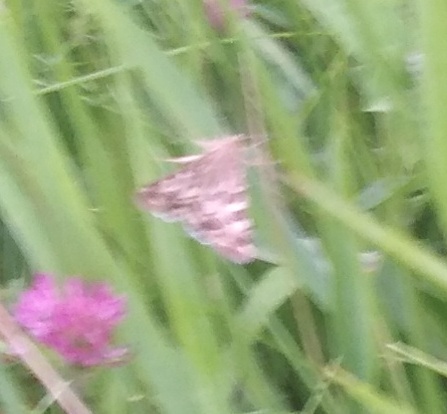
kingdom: Animalia
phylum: Arthropoda
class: Insecta
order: Lepidoptera
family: Noctuidae
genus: Protoschinia
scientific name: Protoschinia scutosa
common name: Spotted clover
